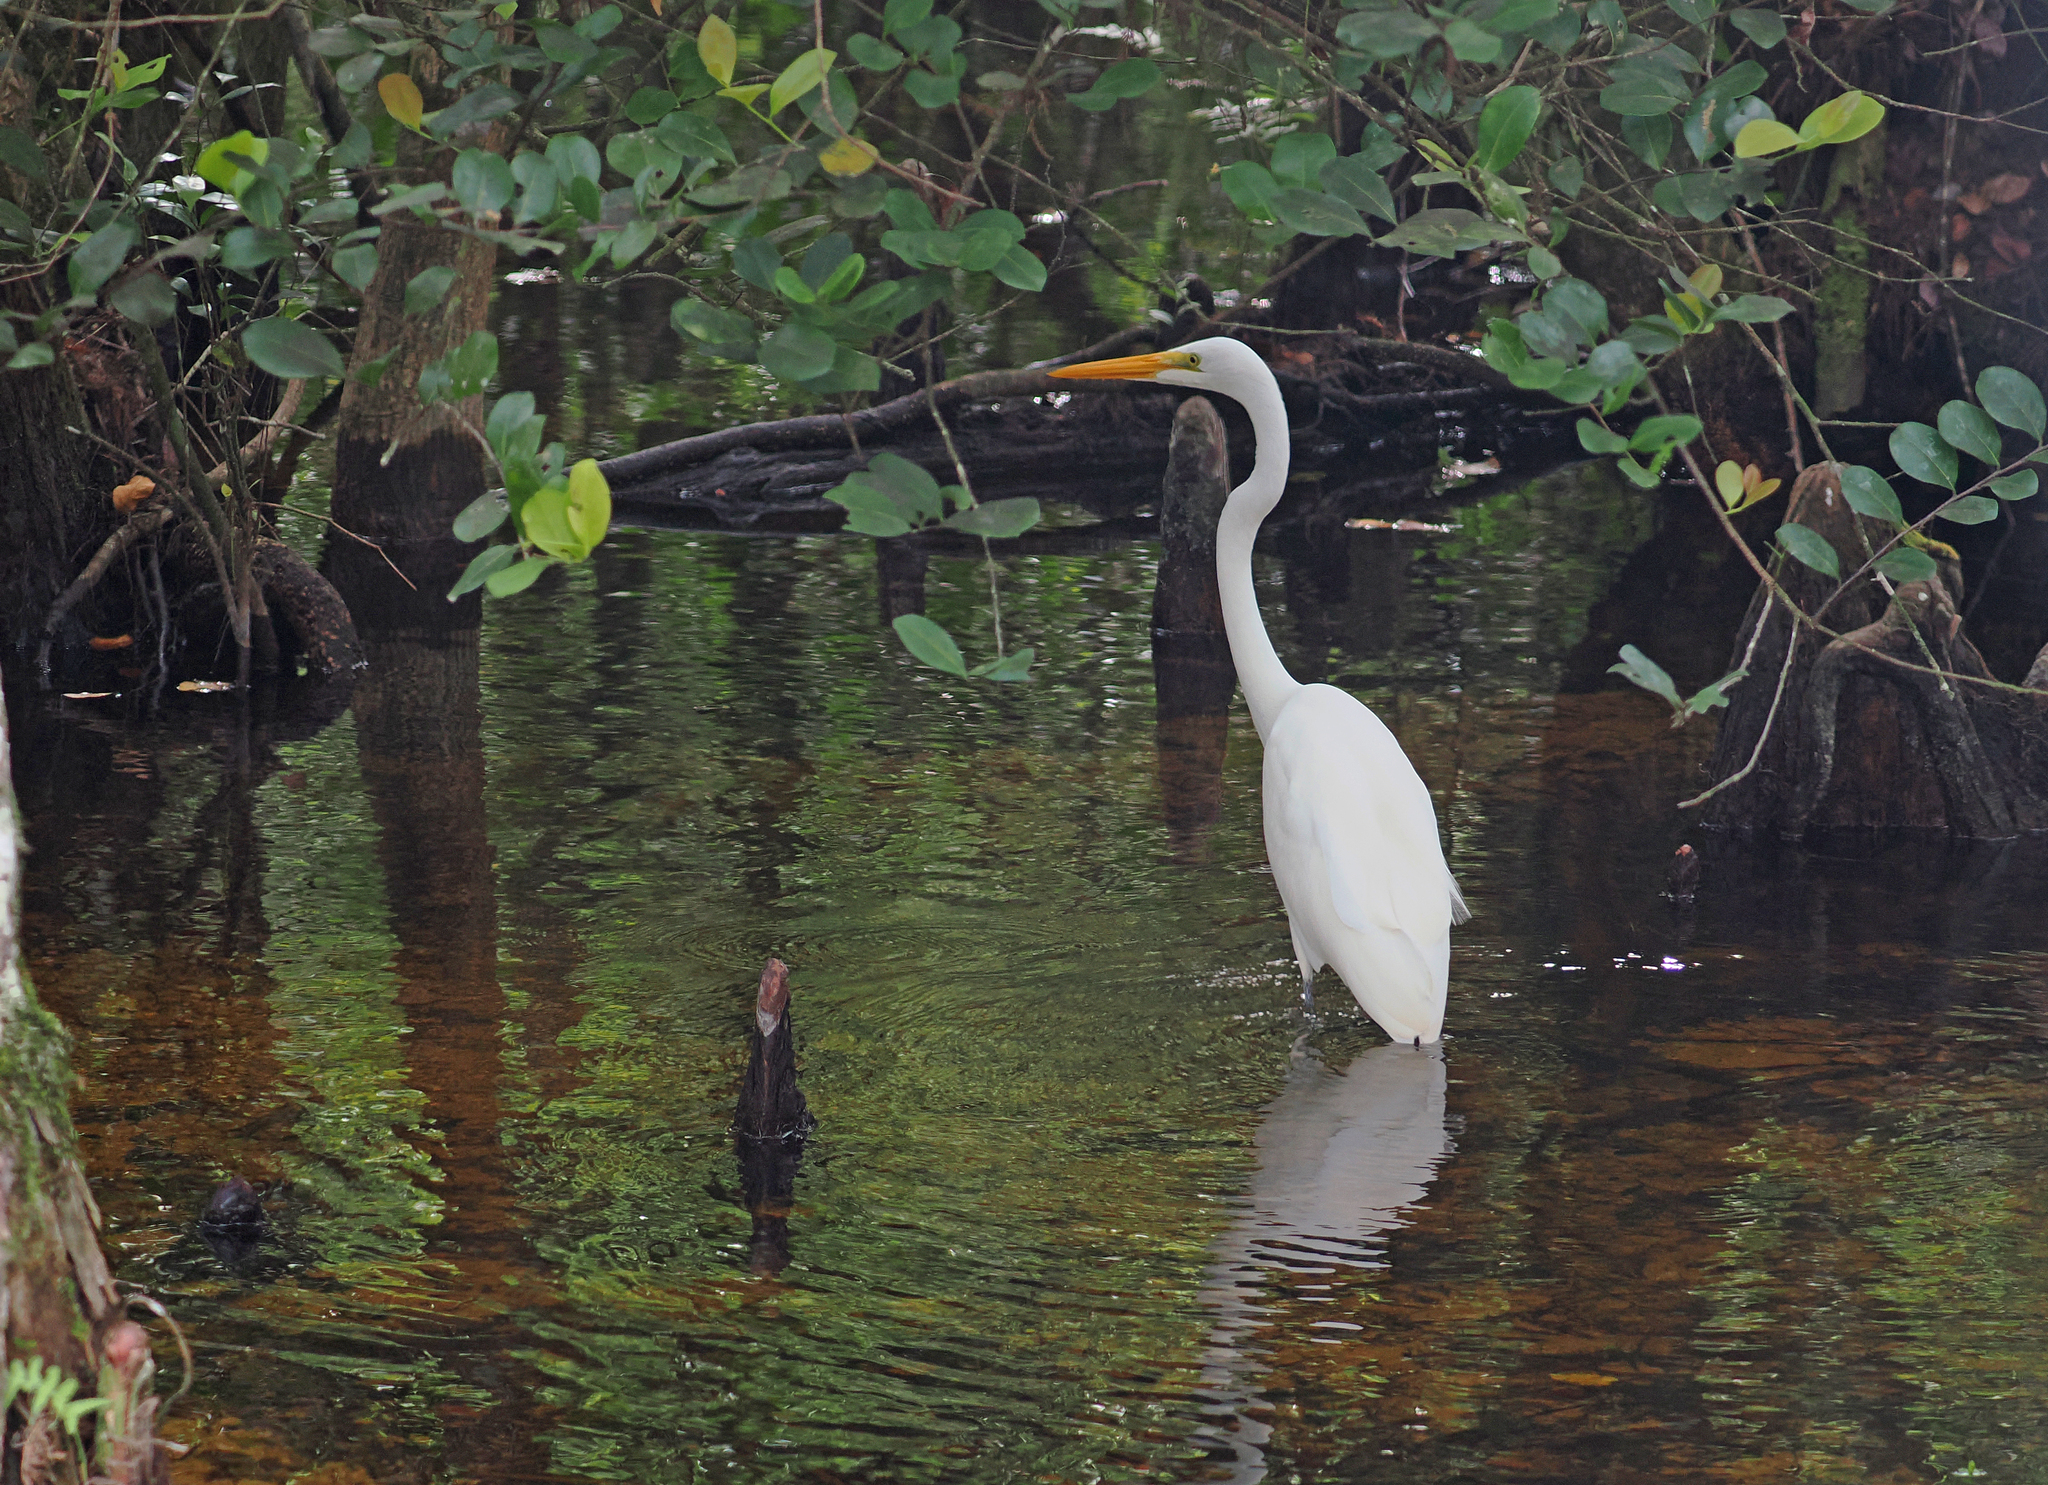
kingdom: Animalia
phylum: Chordata
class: Aves
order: Pelecaniformes
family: Ardeidae
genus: Ardea
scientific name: Ardea alba
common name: Great egret
